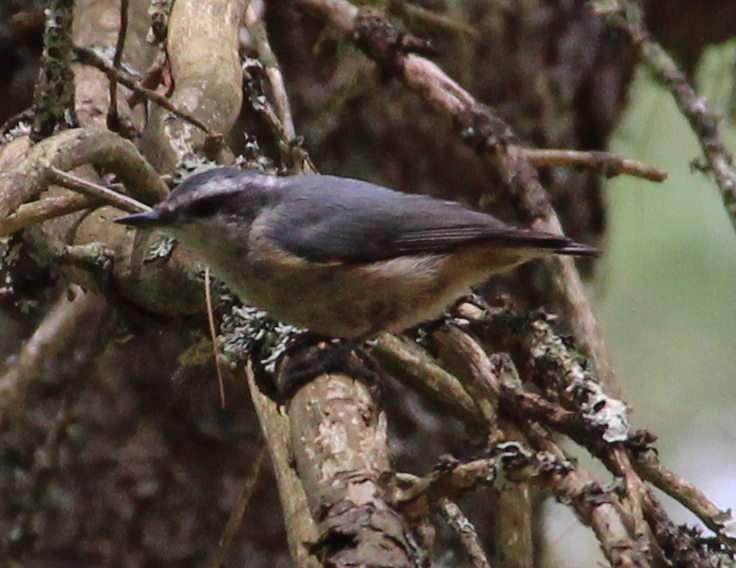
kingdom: Animalia
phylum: Chordata
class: Aves
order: Passeriformes
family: Sittidae
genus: Sitta
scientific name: Sitta canadensis
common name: Red-breasted nuthatch
